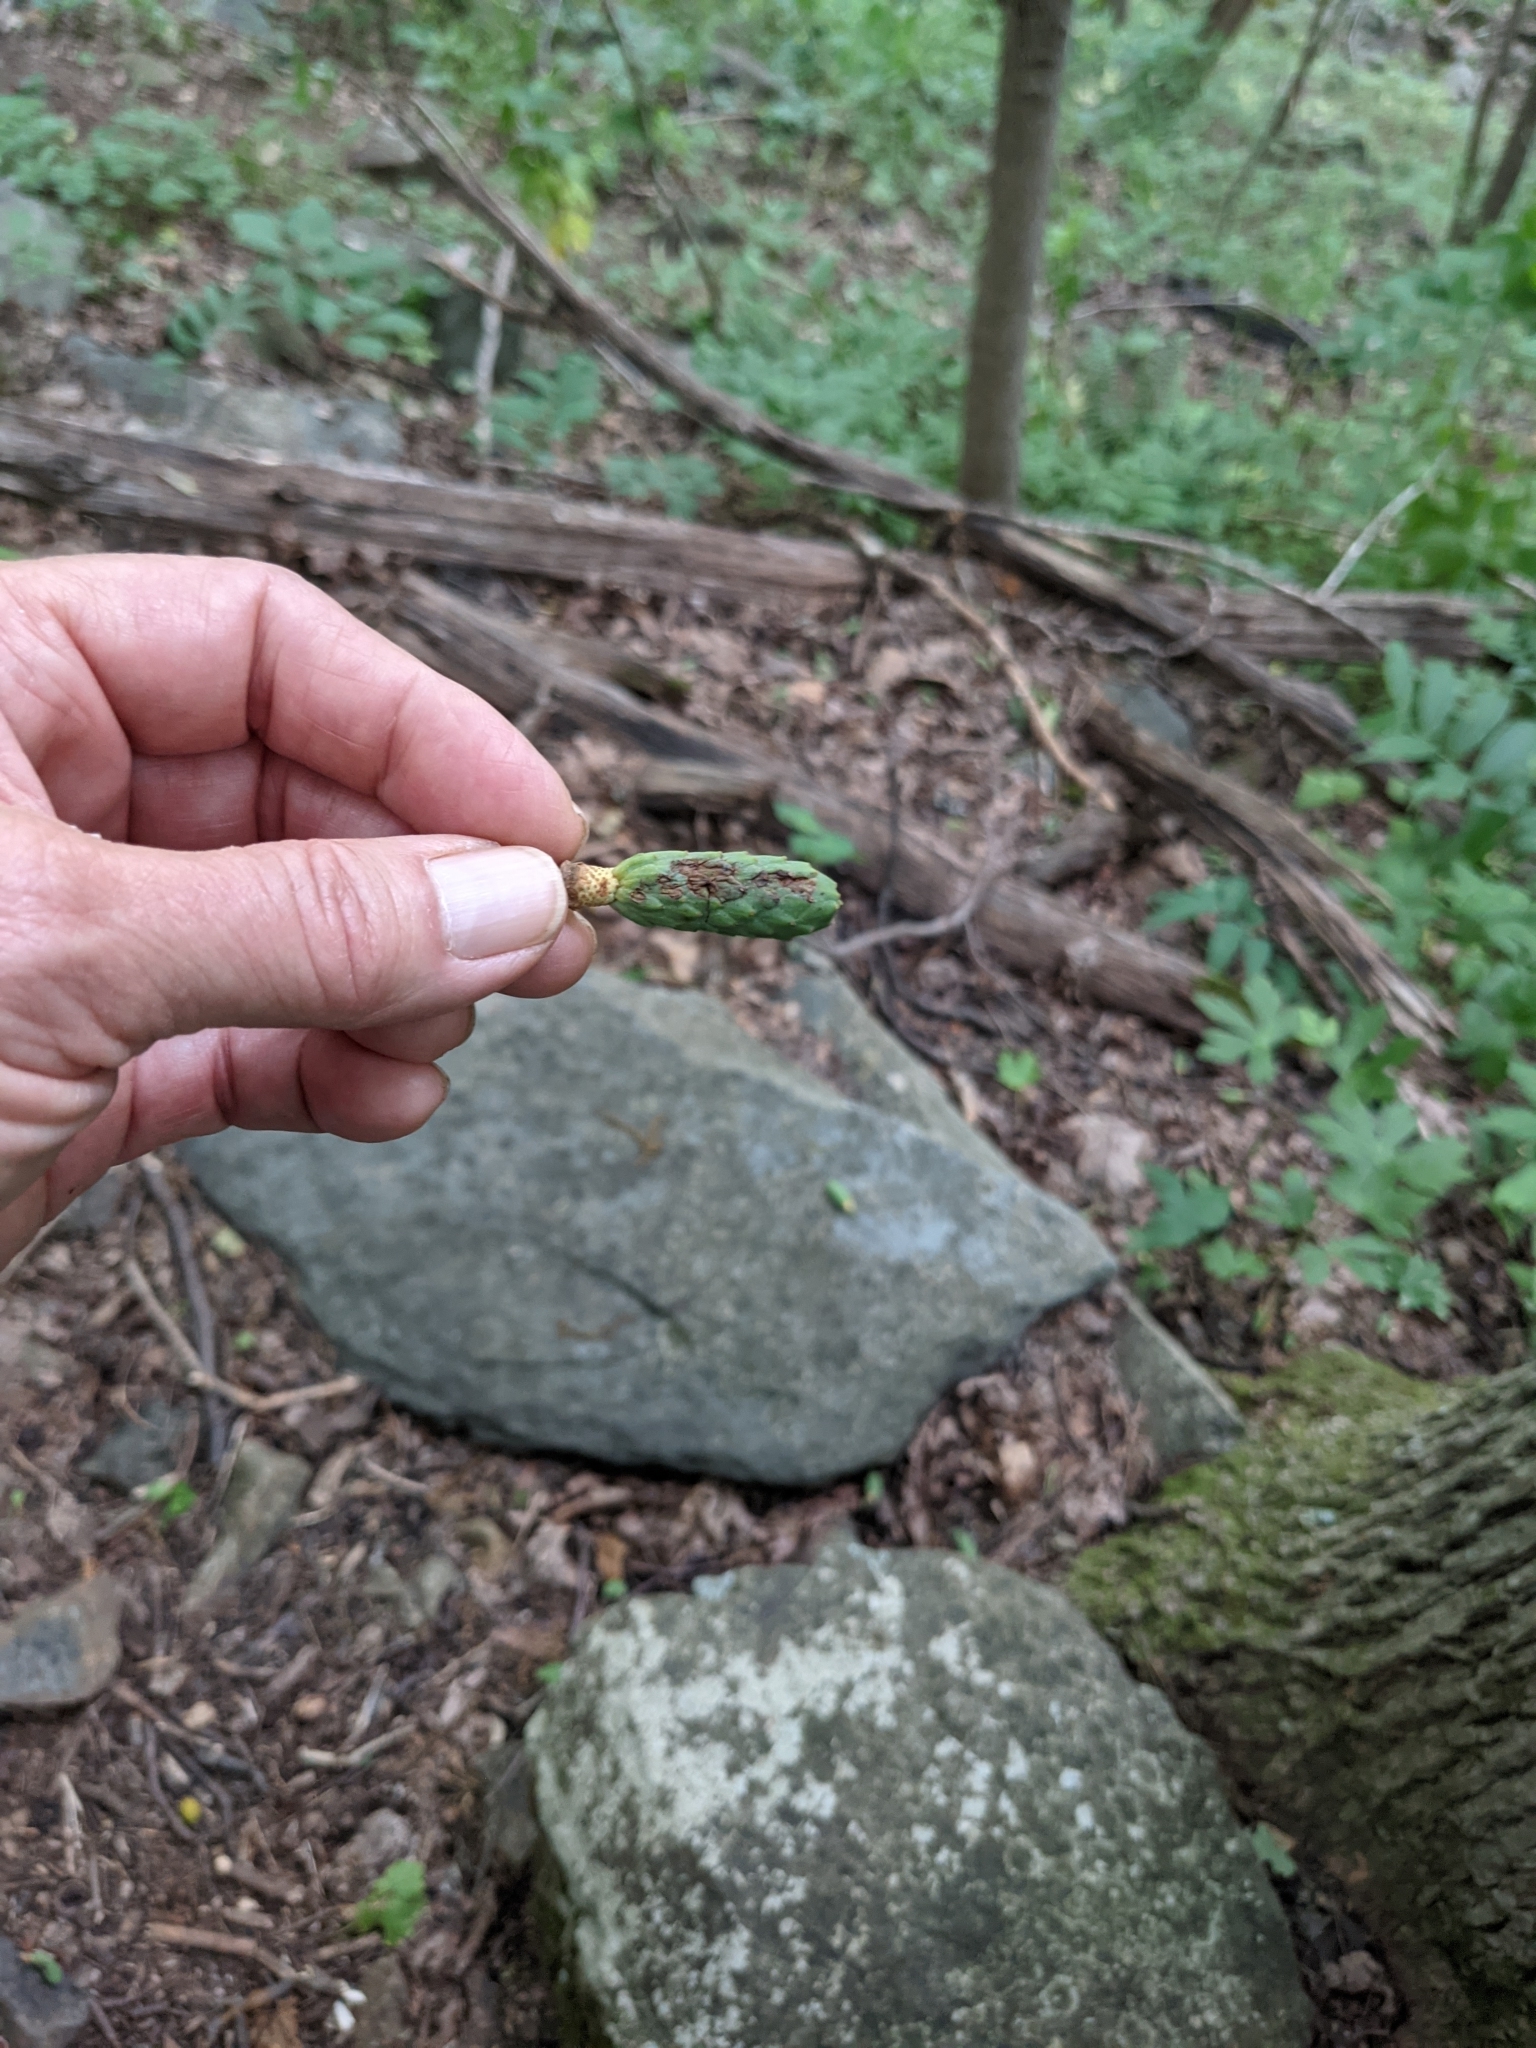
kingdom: Plantae
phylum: Tracheophyta
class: Magnoliopsida
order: Magnoliales
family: Magnoliaceae
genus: Magnolia
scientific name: Magnolia acuminata
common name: Cucumber magnolia
